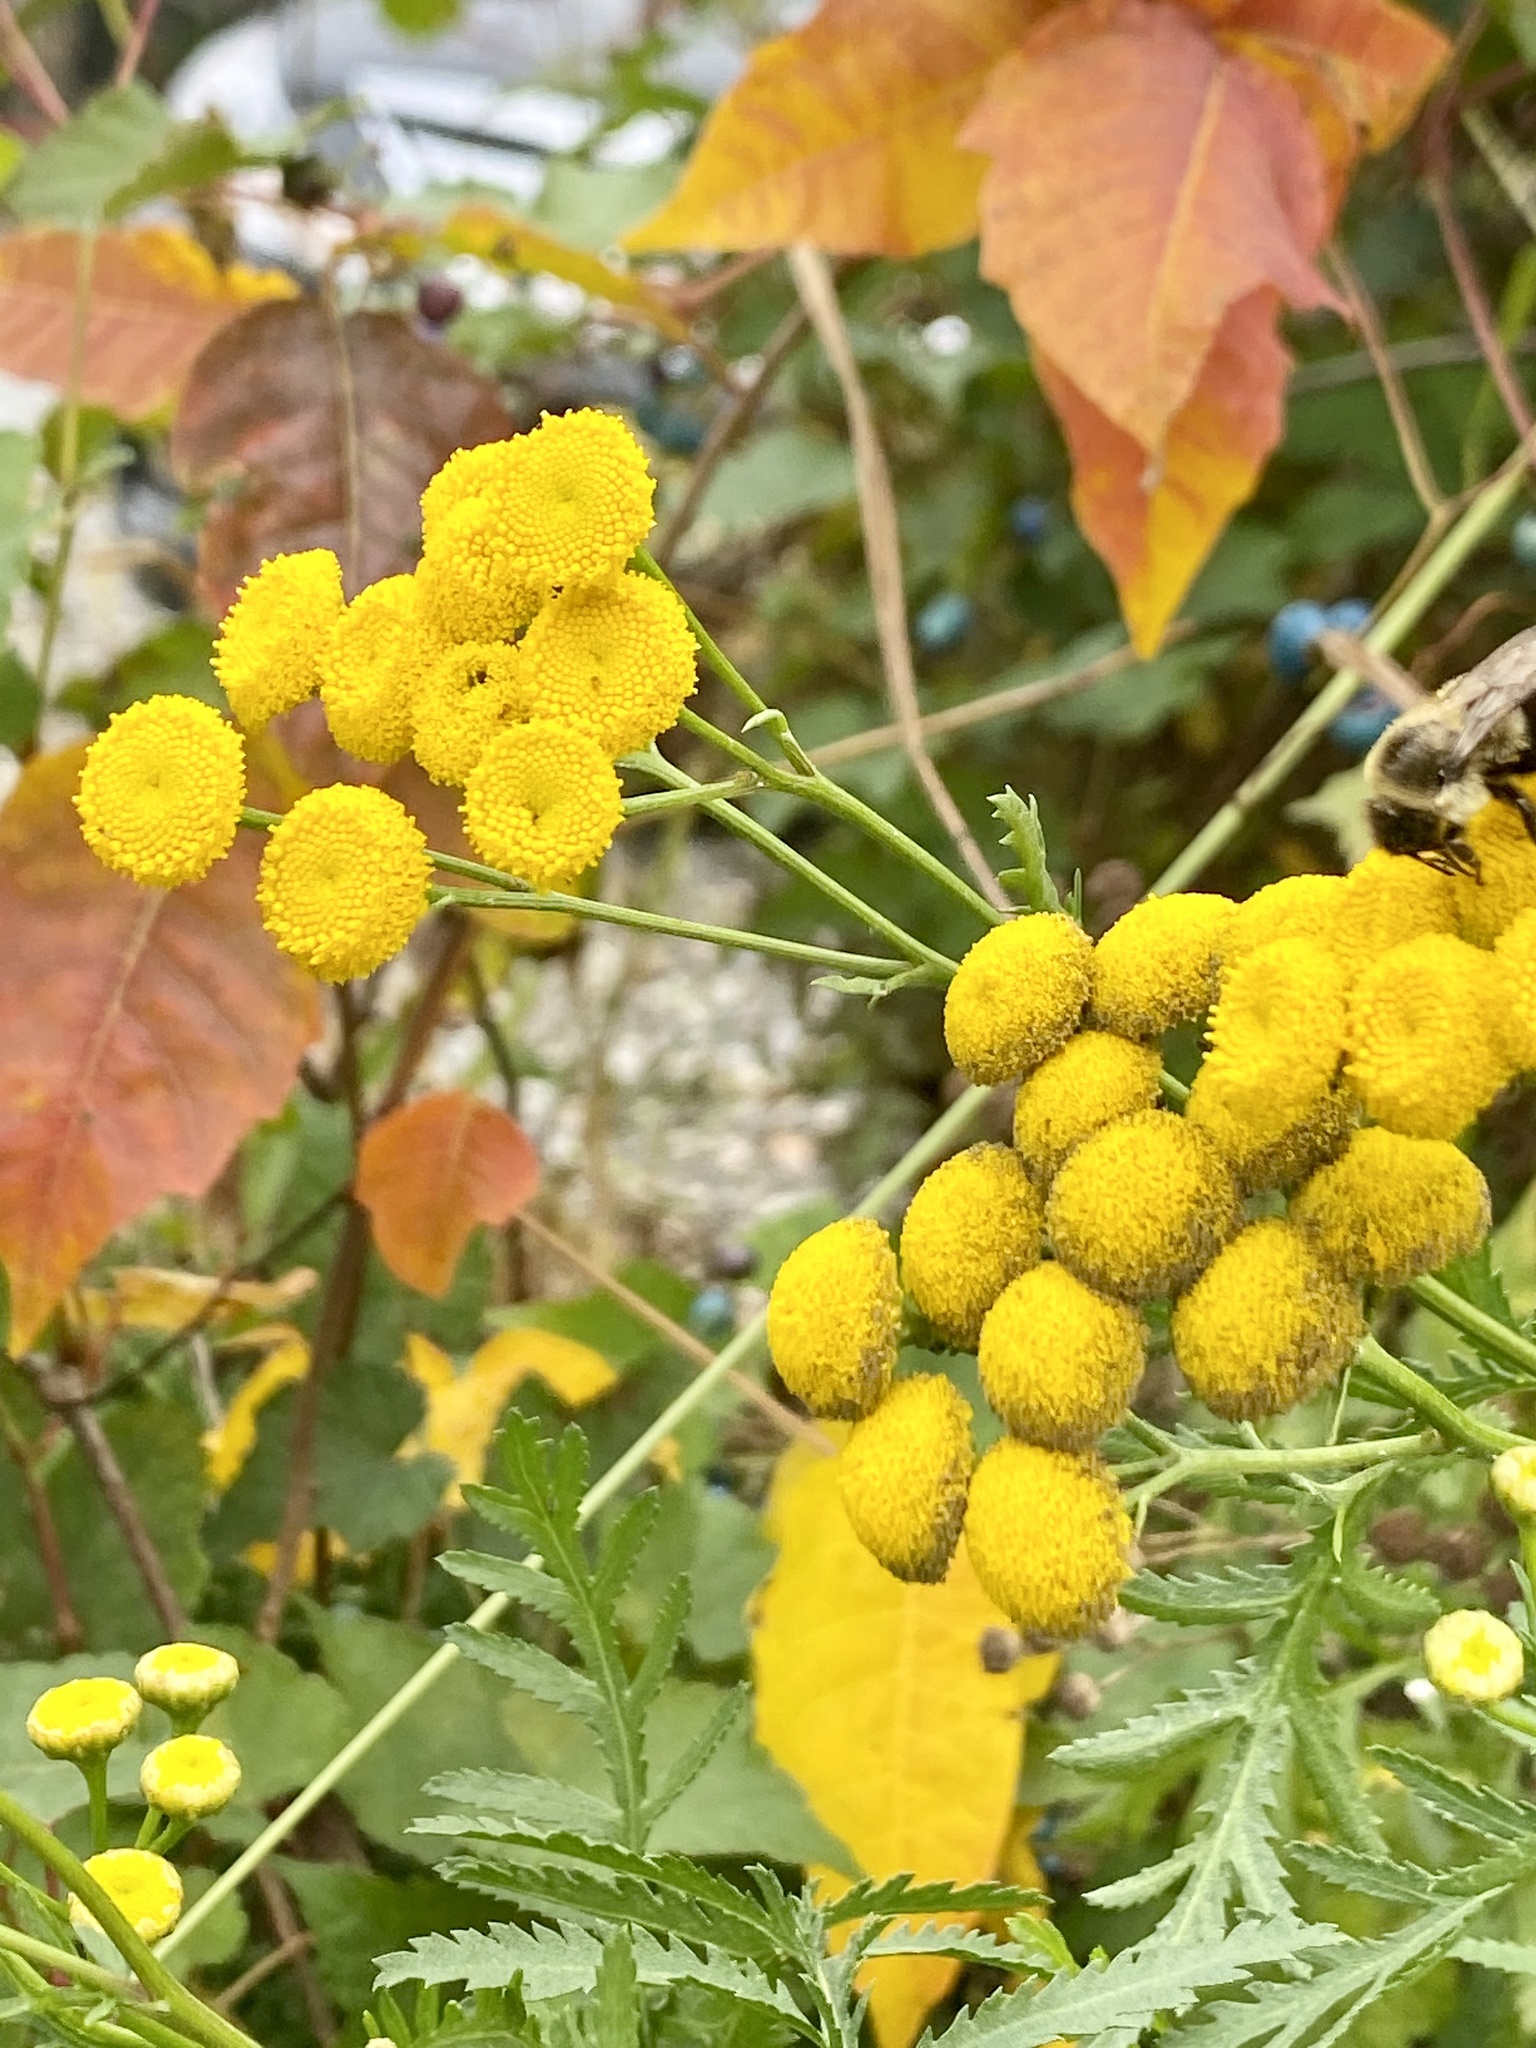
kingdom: Plantae
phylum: Tracheophyta
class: Magnoliopsida
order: Asterales
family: Asteraceae
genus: Tanacetum
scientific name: Tanacetum vulgare
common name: Common tansy
